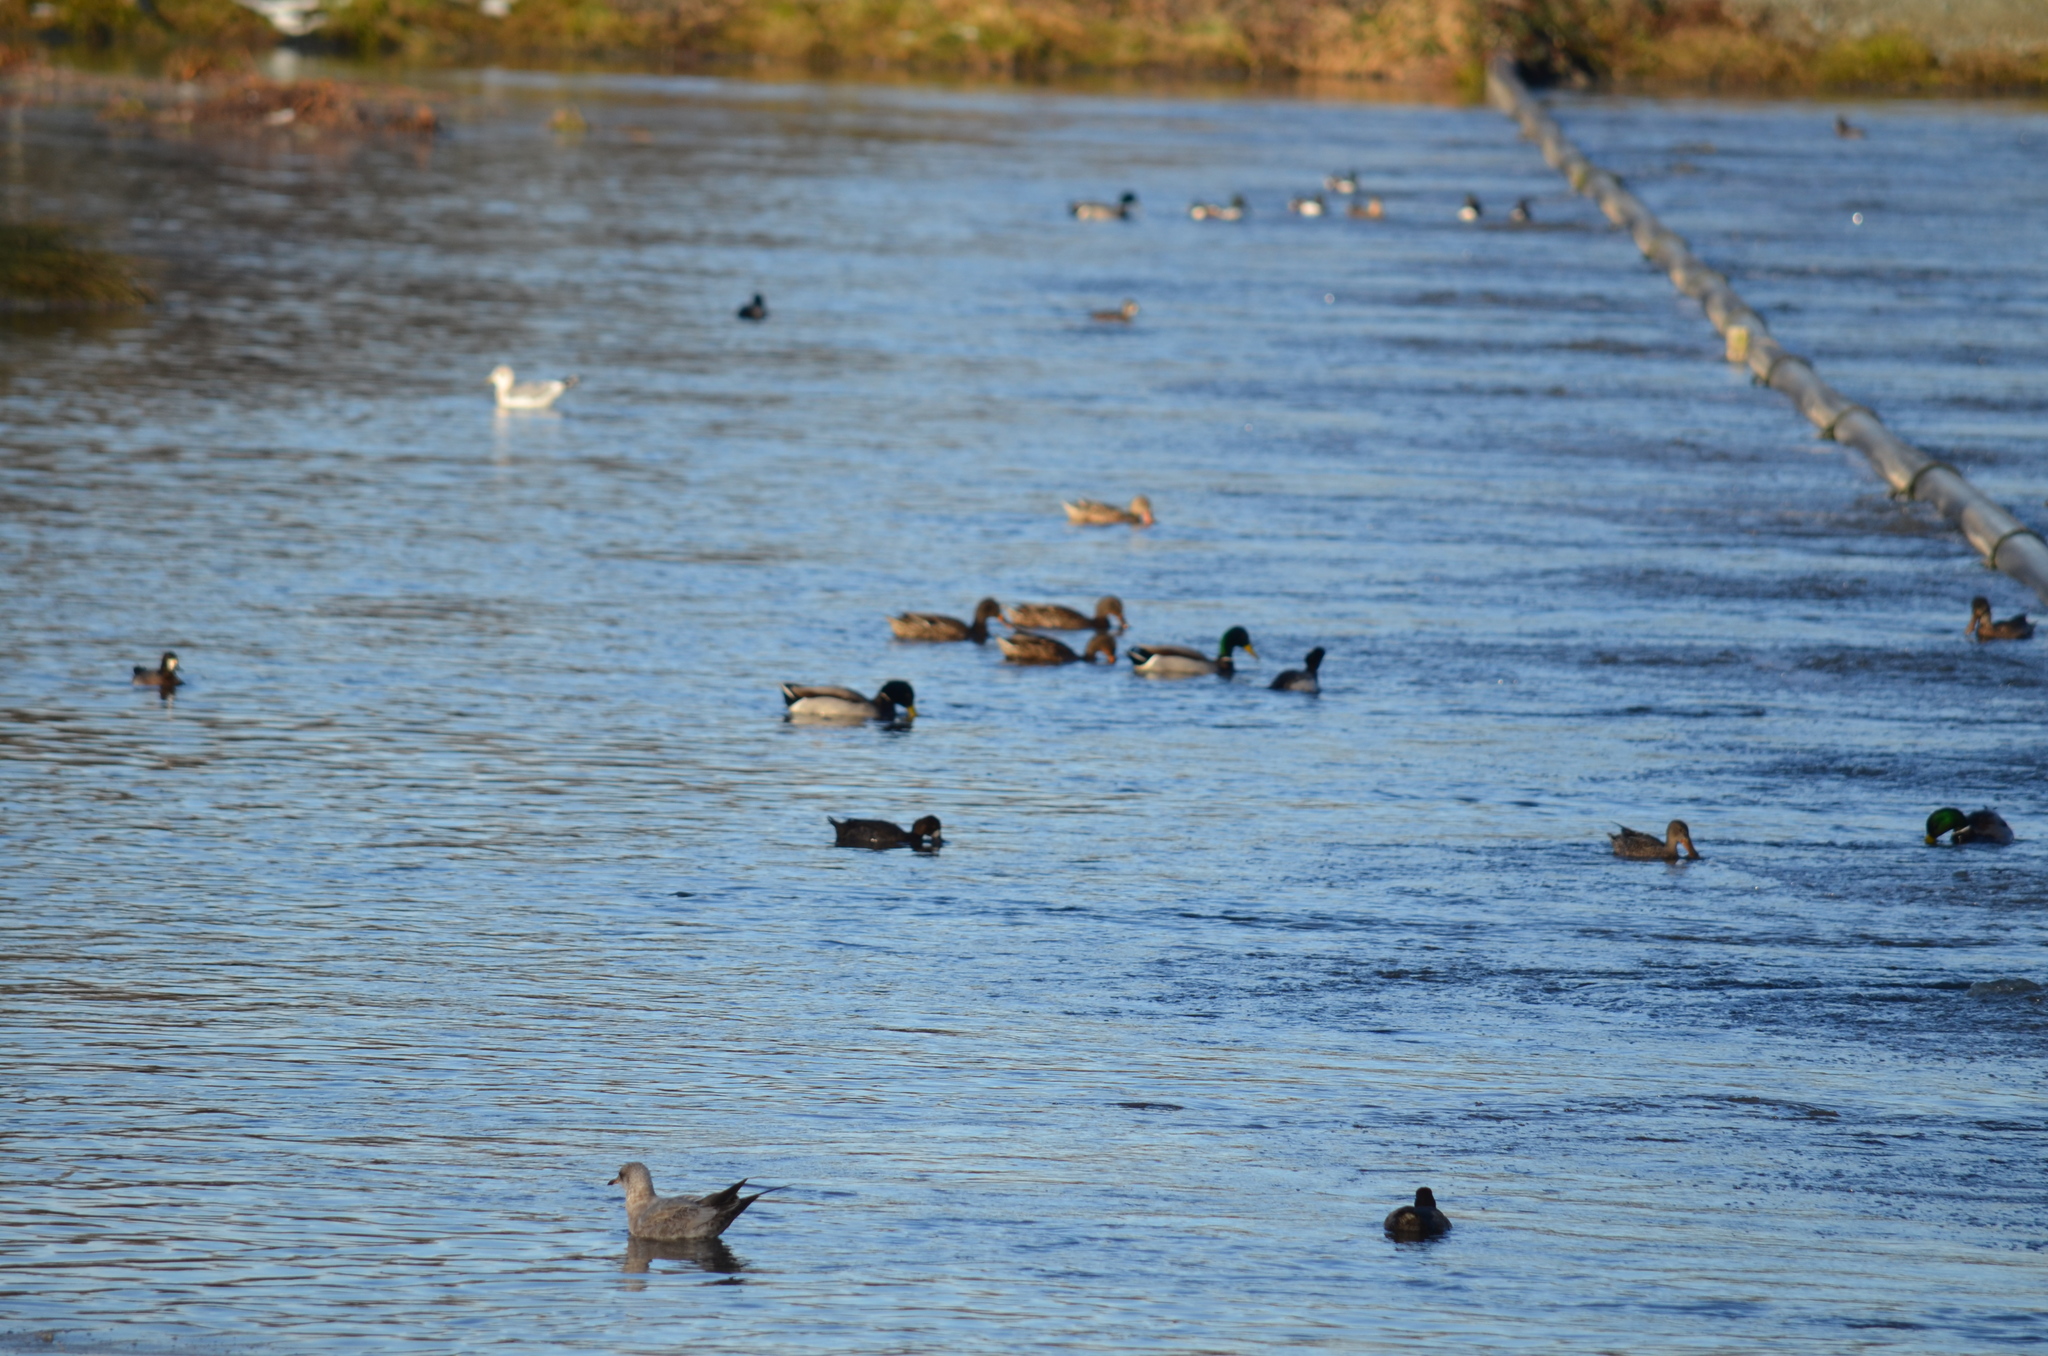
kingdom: Animalia
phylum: Chordata
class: Aves
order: Anseriformes
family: Anatidae
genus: Anas
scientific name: Anas platyrhynchos
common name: Mallard
